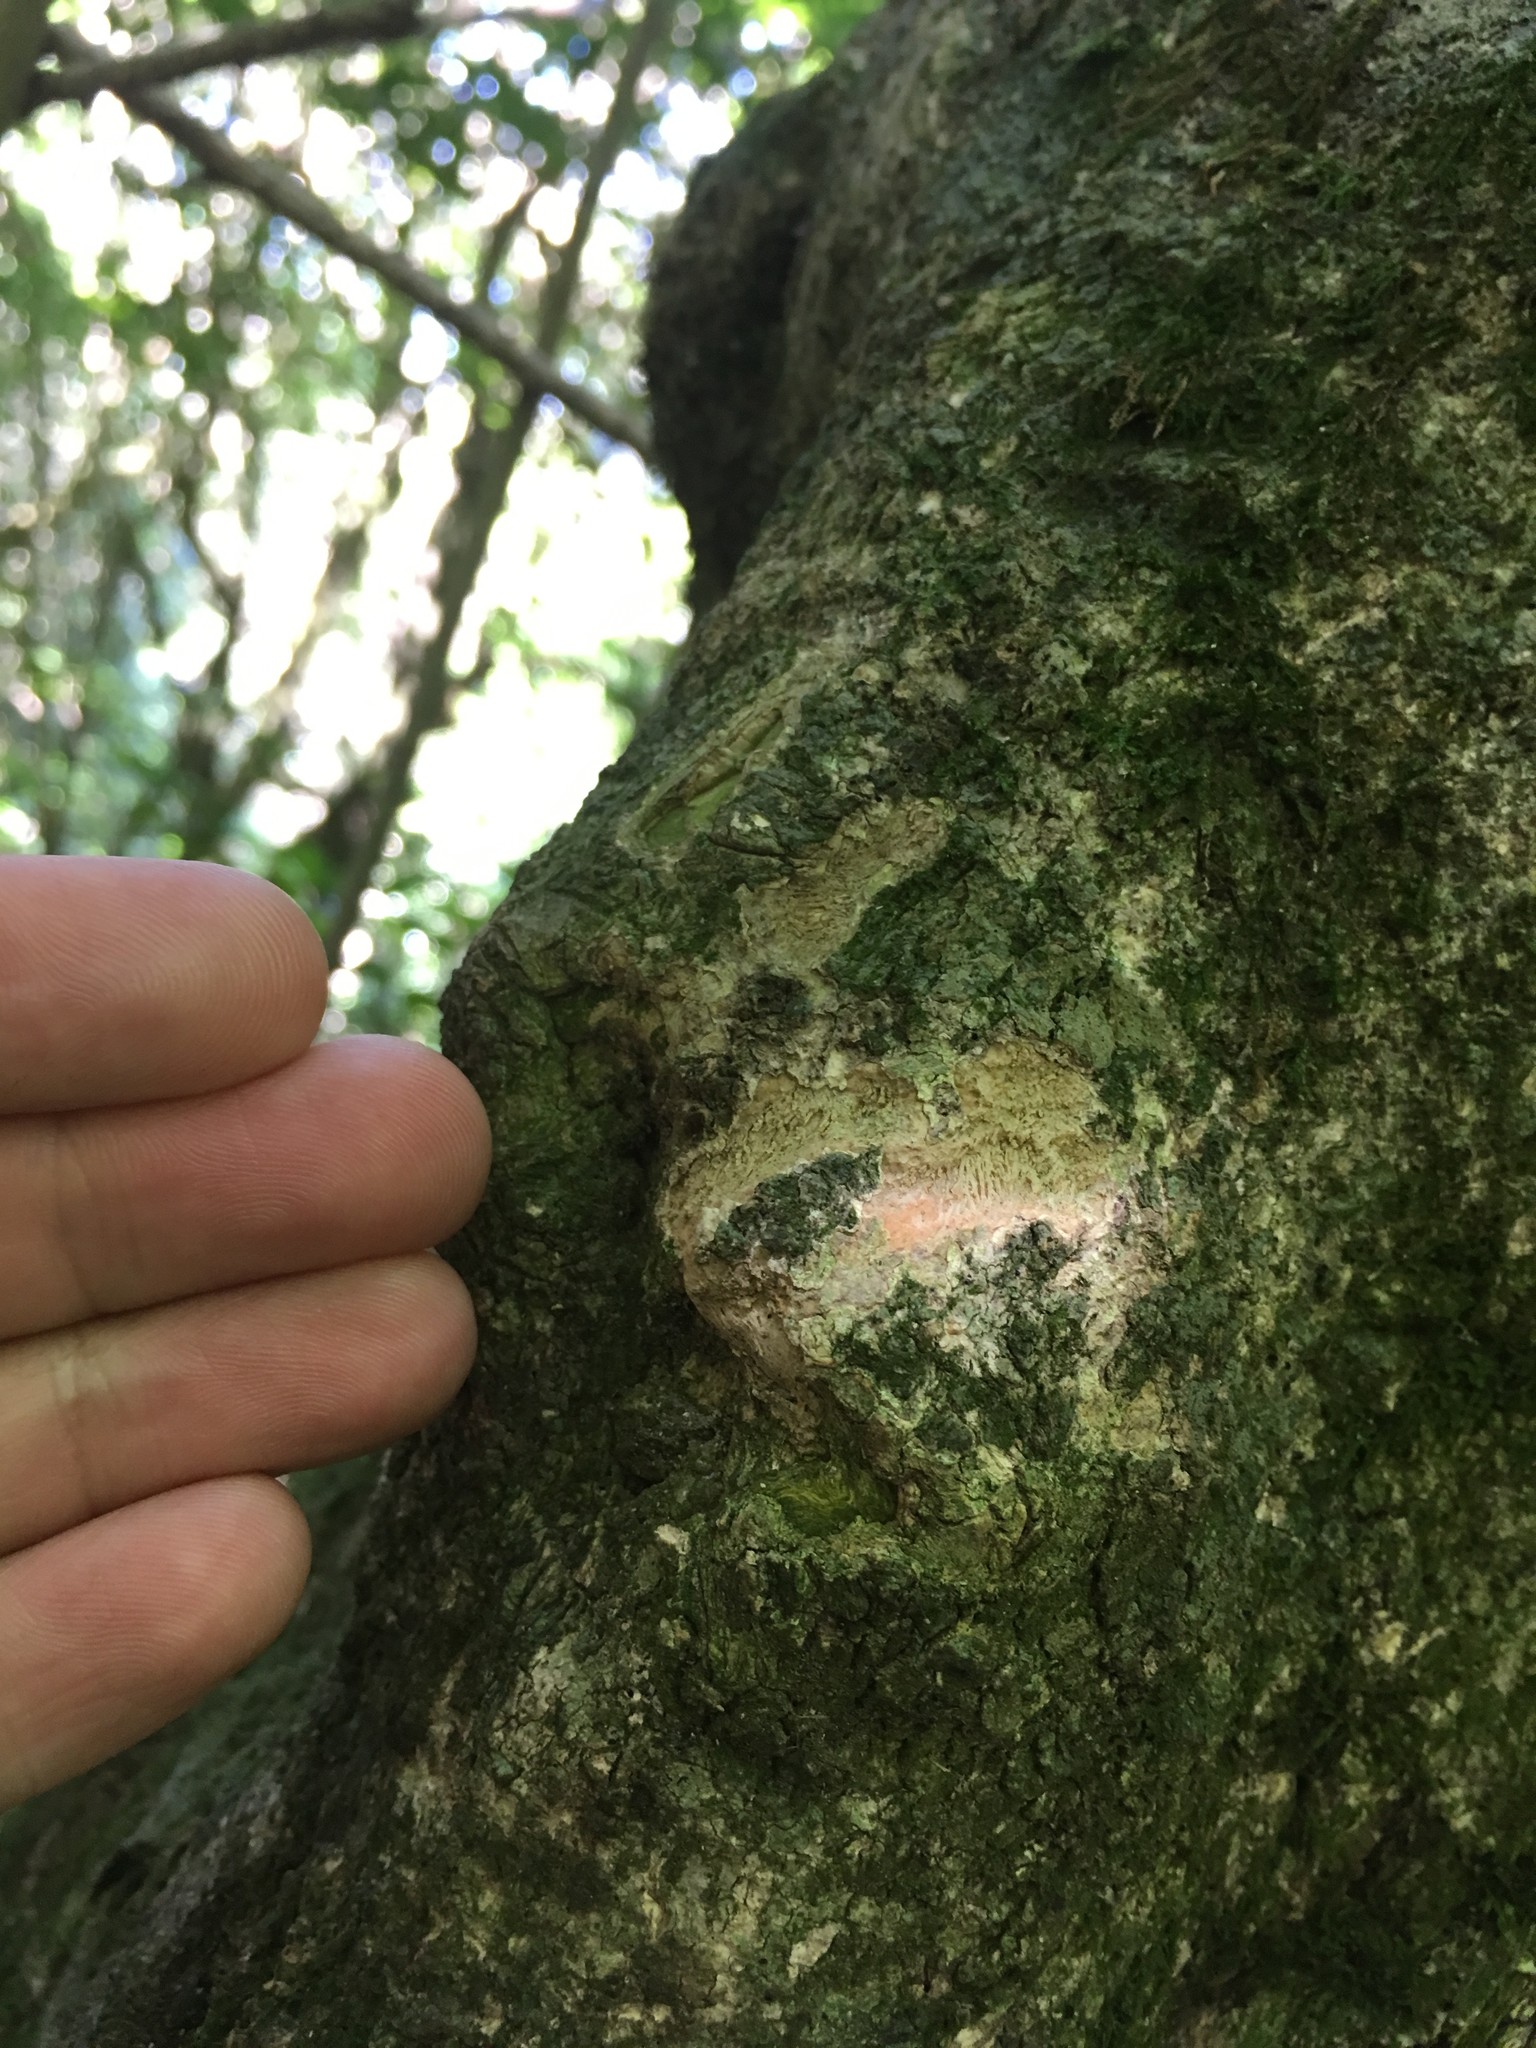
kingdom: Animalia
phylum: Chordata
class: Mammalia
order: Diprotodontia
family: Phalangeridae
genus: Trichosurus
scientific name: Trichosurus vulpecula
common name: Common brushtail
